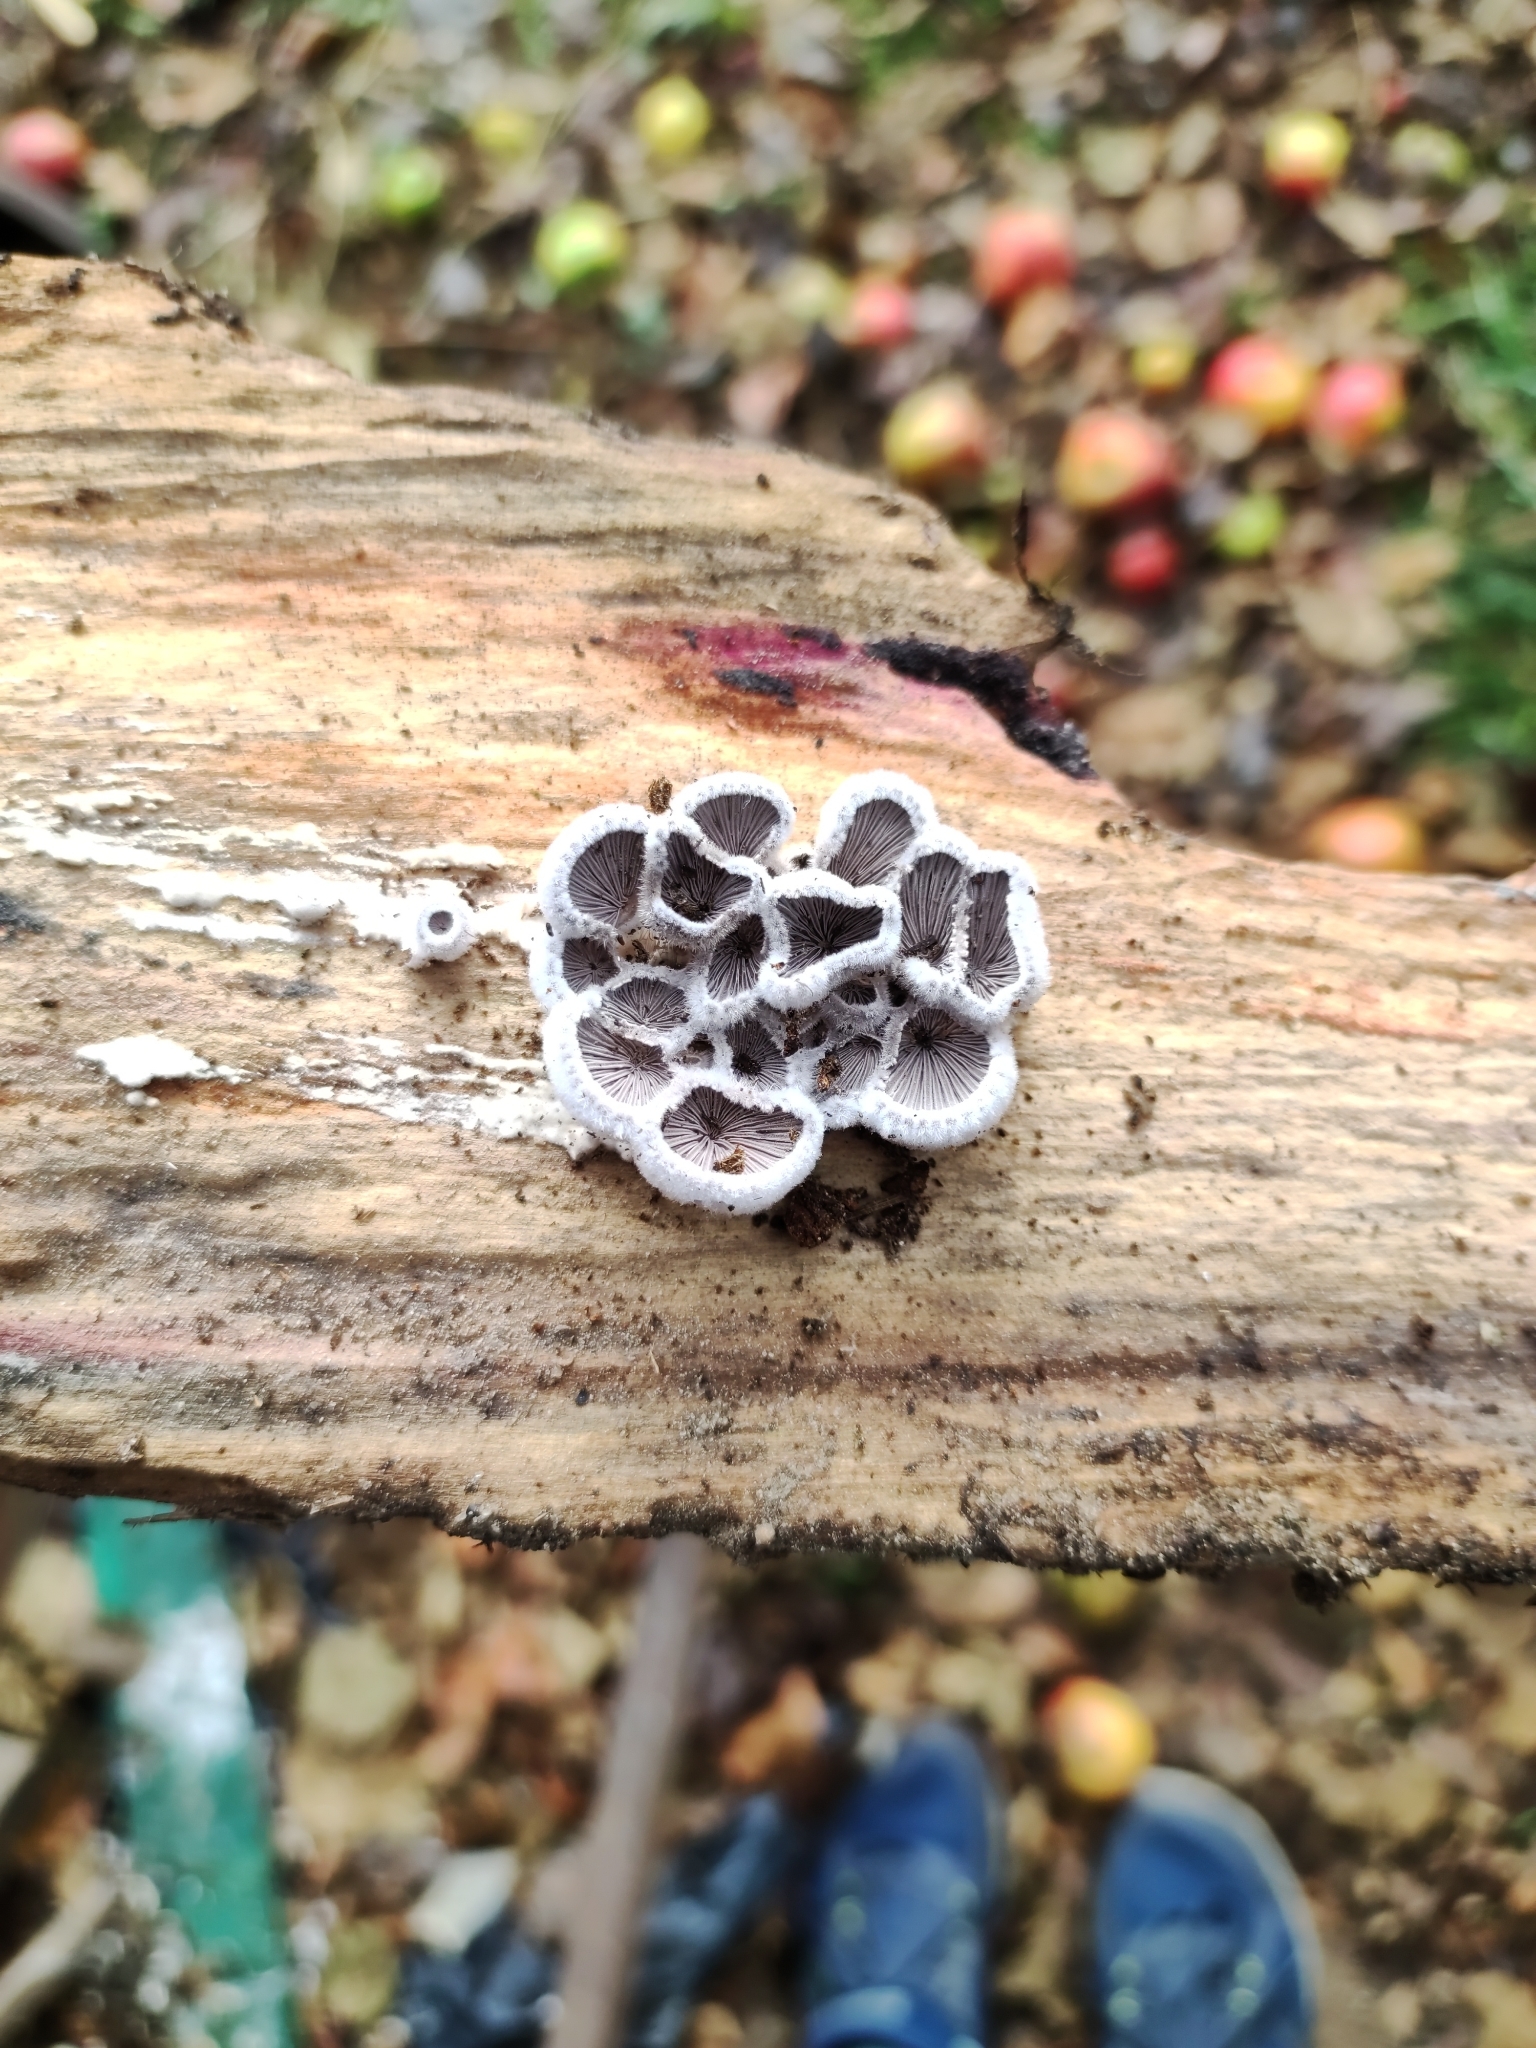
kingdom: Fungi
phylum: Basidiomycota
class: Agaricomycetes
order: Agaricales
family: Schizophyllaceae
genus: Schizophyllum
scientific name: Schizophyllum commune
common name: Common porecrust
